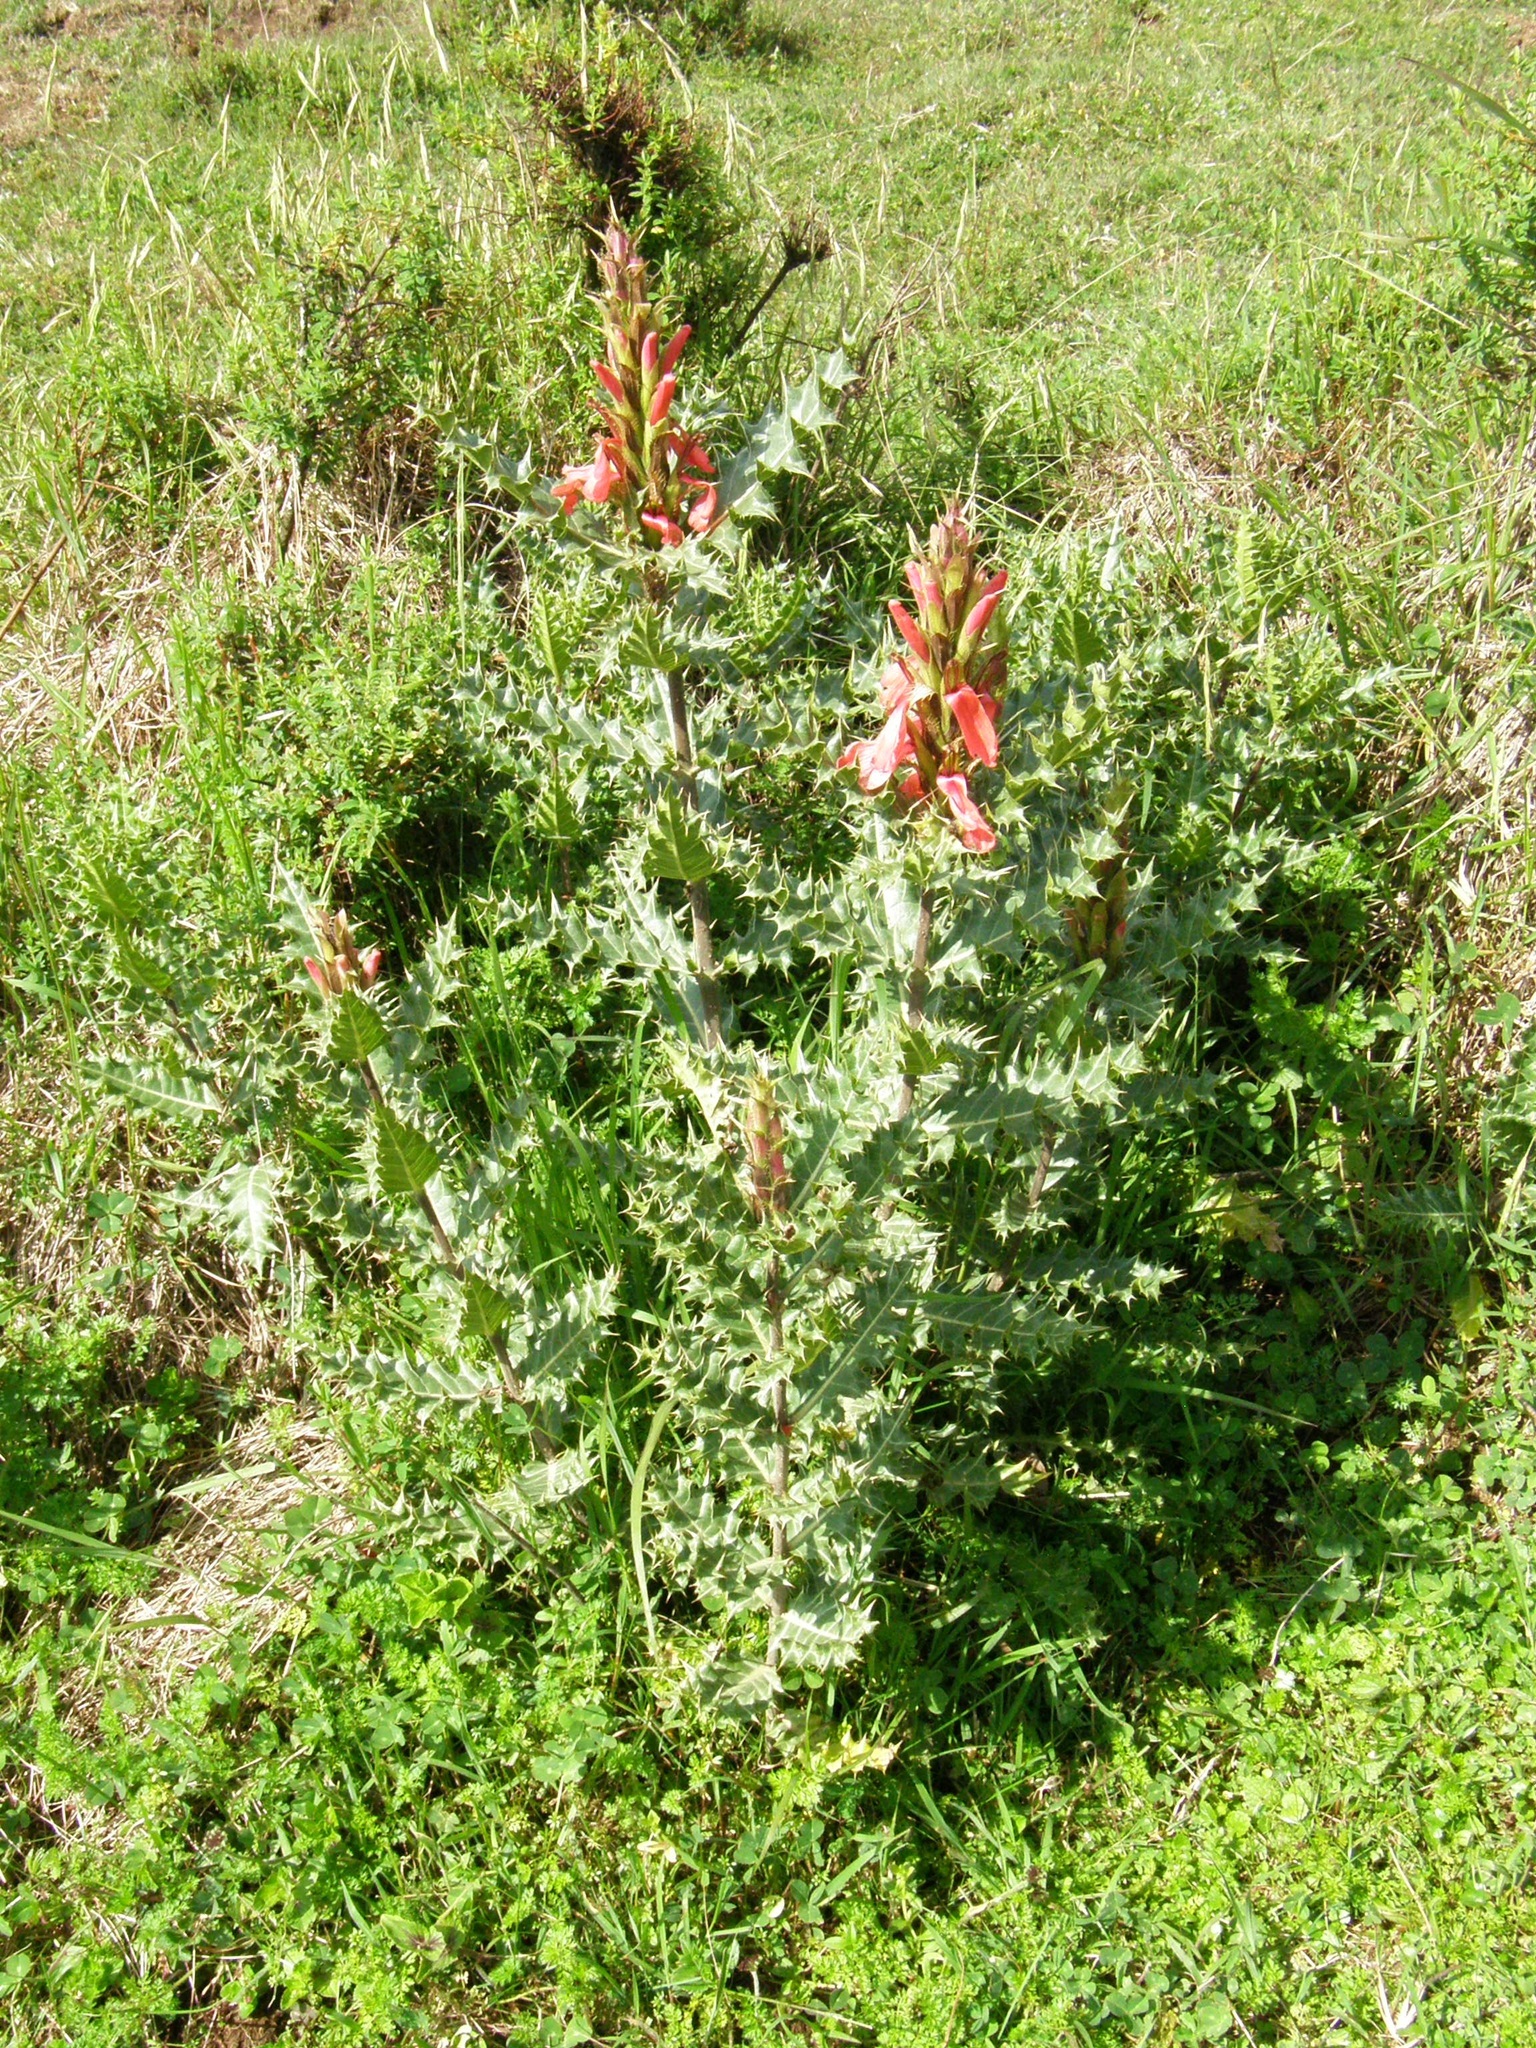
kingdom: Plantae
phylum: Tracheophyta
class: Magnoliopsida
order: Lamiales
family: Acanthaceae
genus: Acanthus
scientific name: Acanthus sennii
